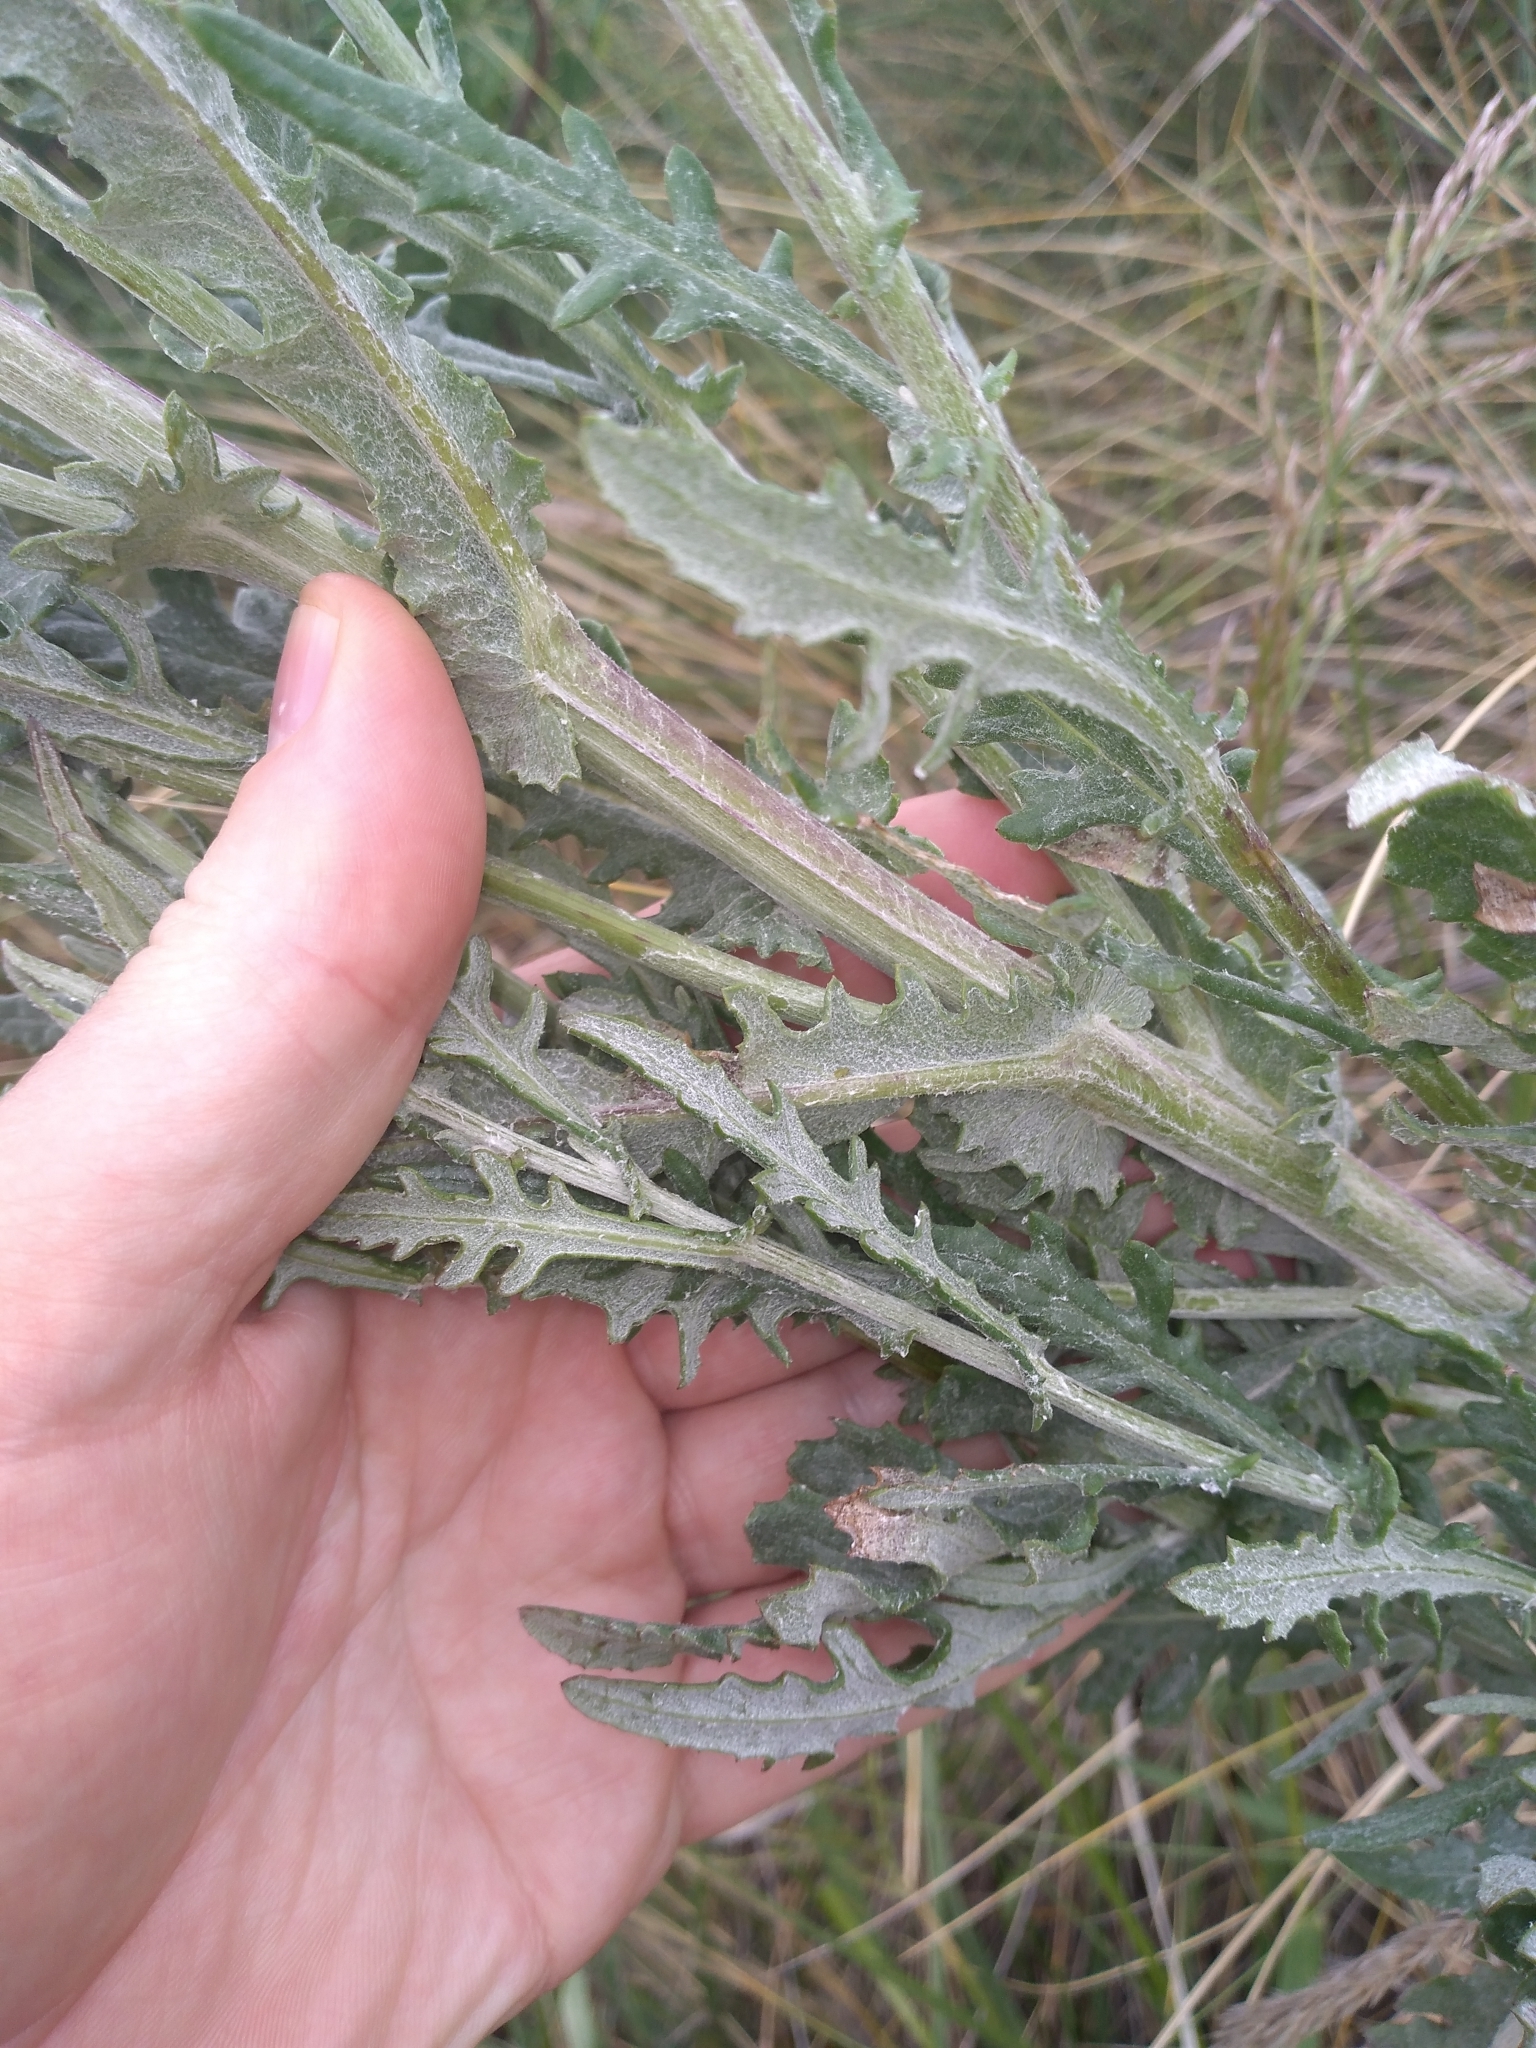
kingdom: Plantae
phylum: Tracheophyta
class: Magnoliopsida
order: Asterales
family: Asteraceae
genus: Senecio
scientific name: Senecio glomeratus
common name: Cutleaf burnweed
